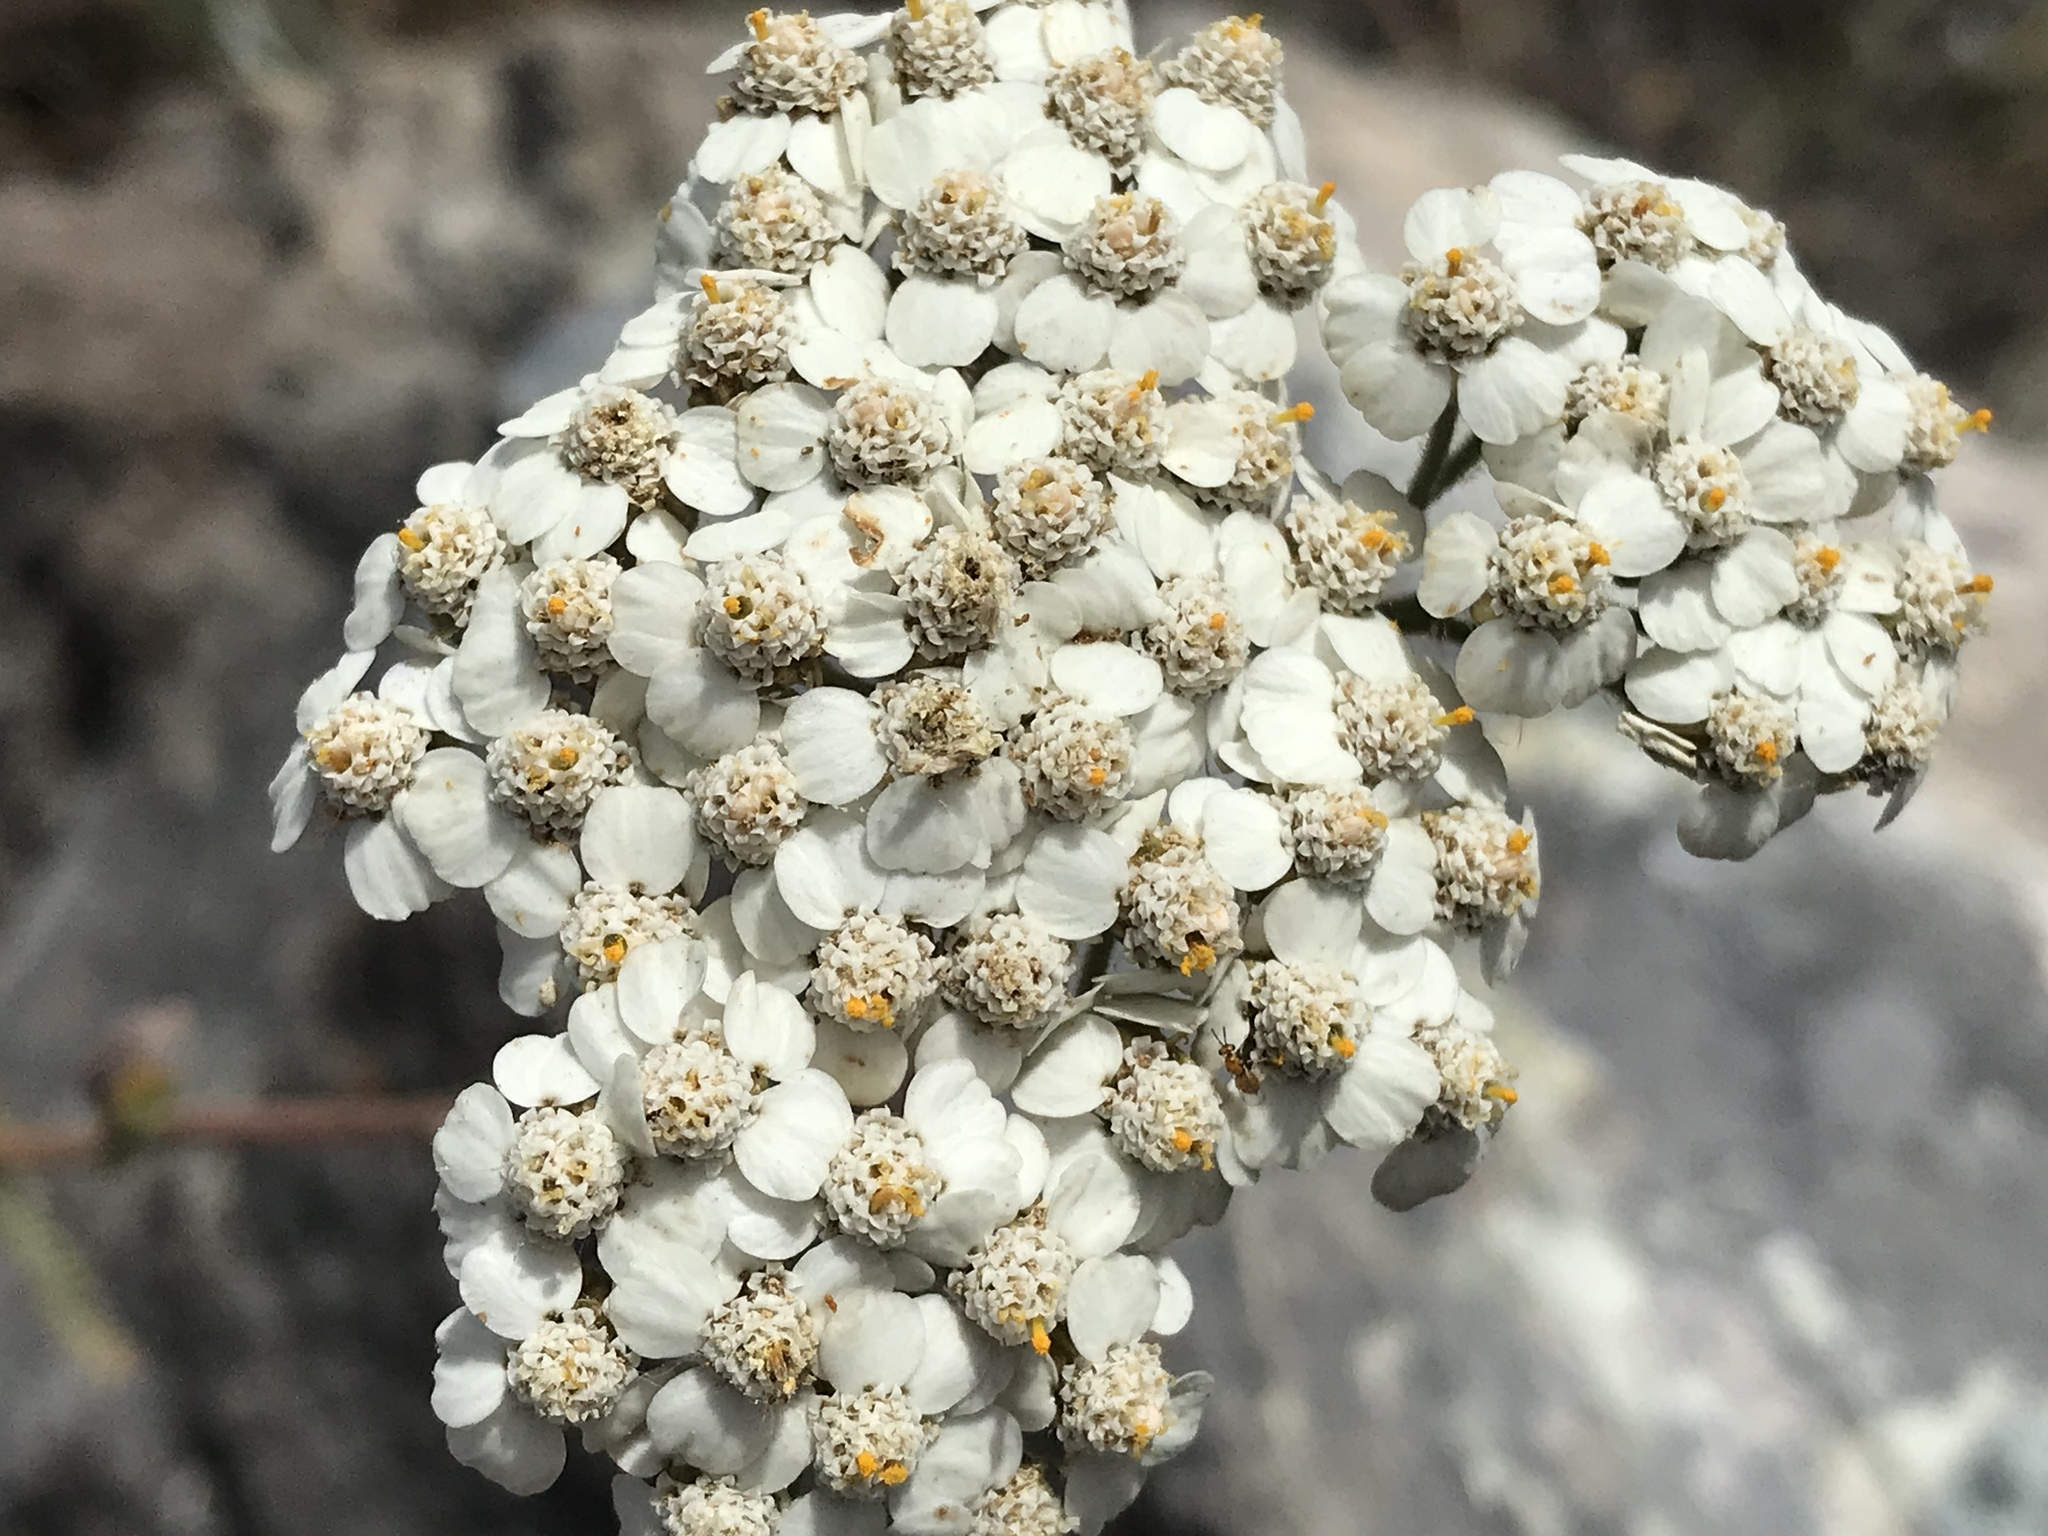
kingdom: Plantae
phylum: Tracheophyta
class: Magnoliopsida
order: Asterales
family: Asteraceae
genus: Achillea
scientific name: Achillea millefolium
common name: Yarrow
